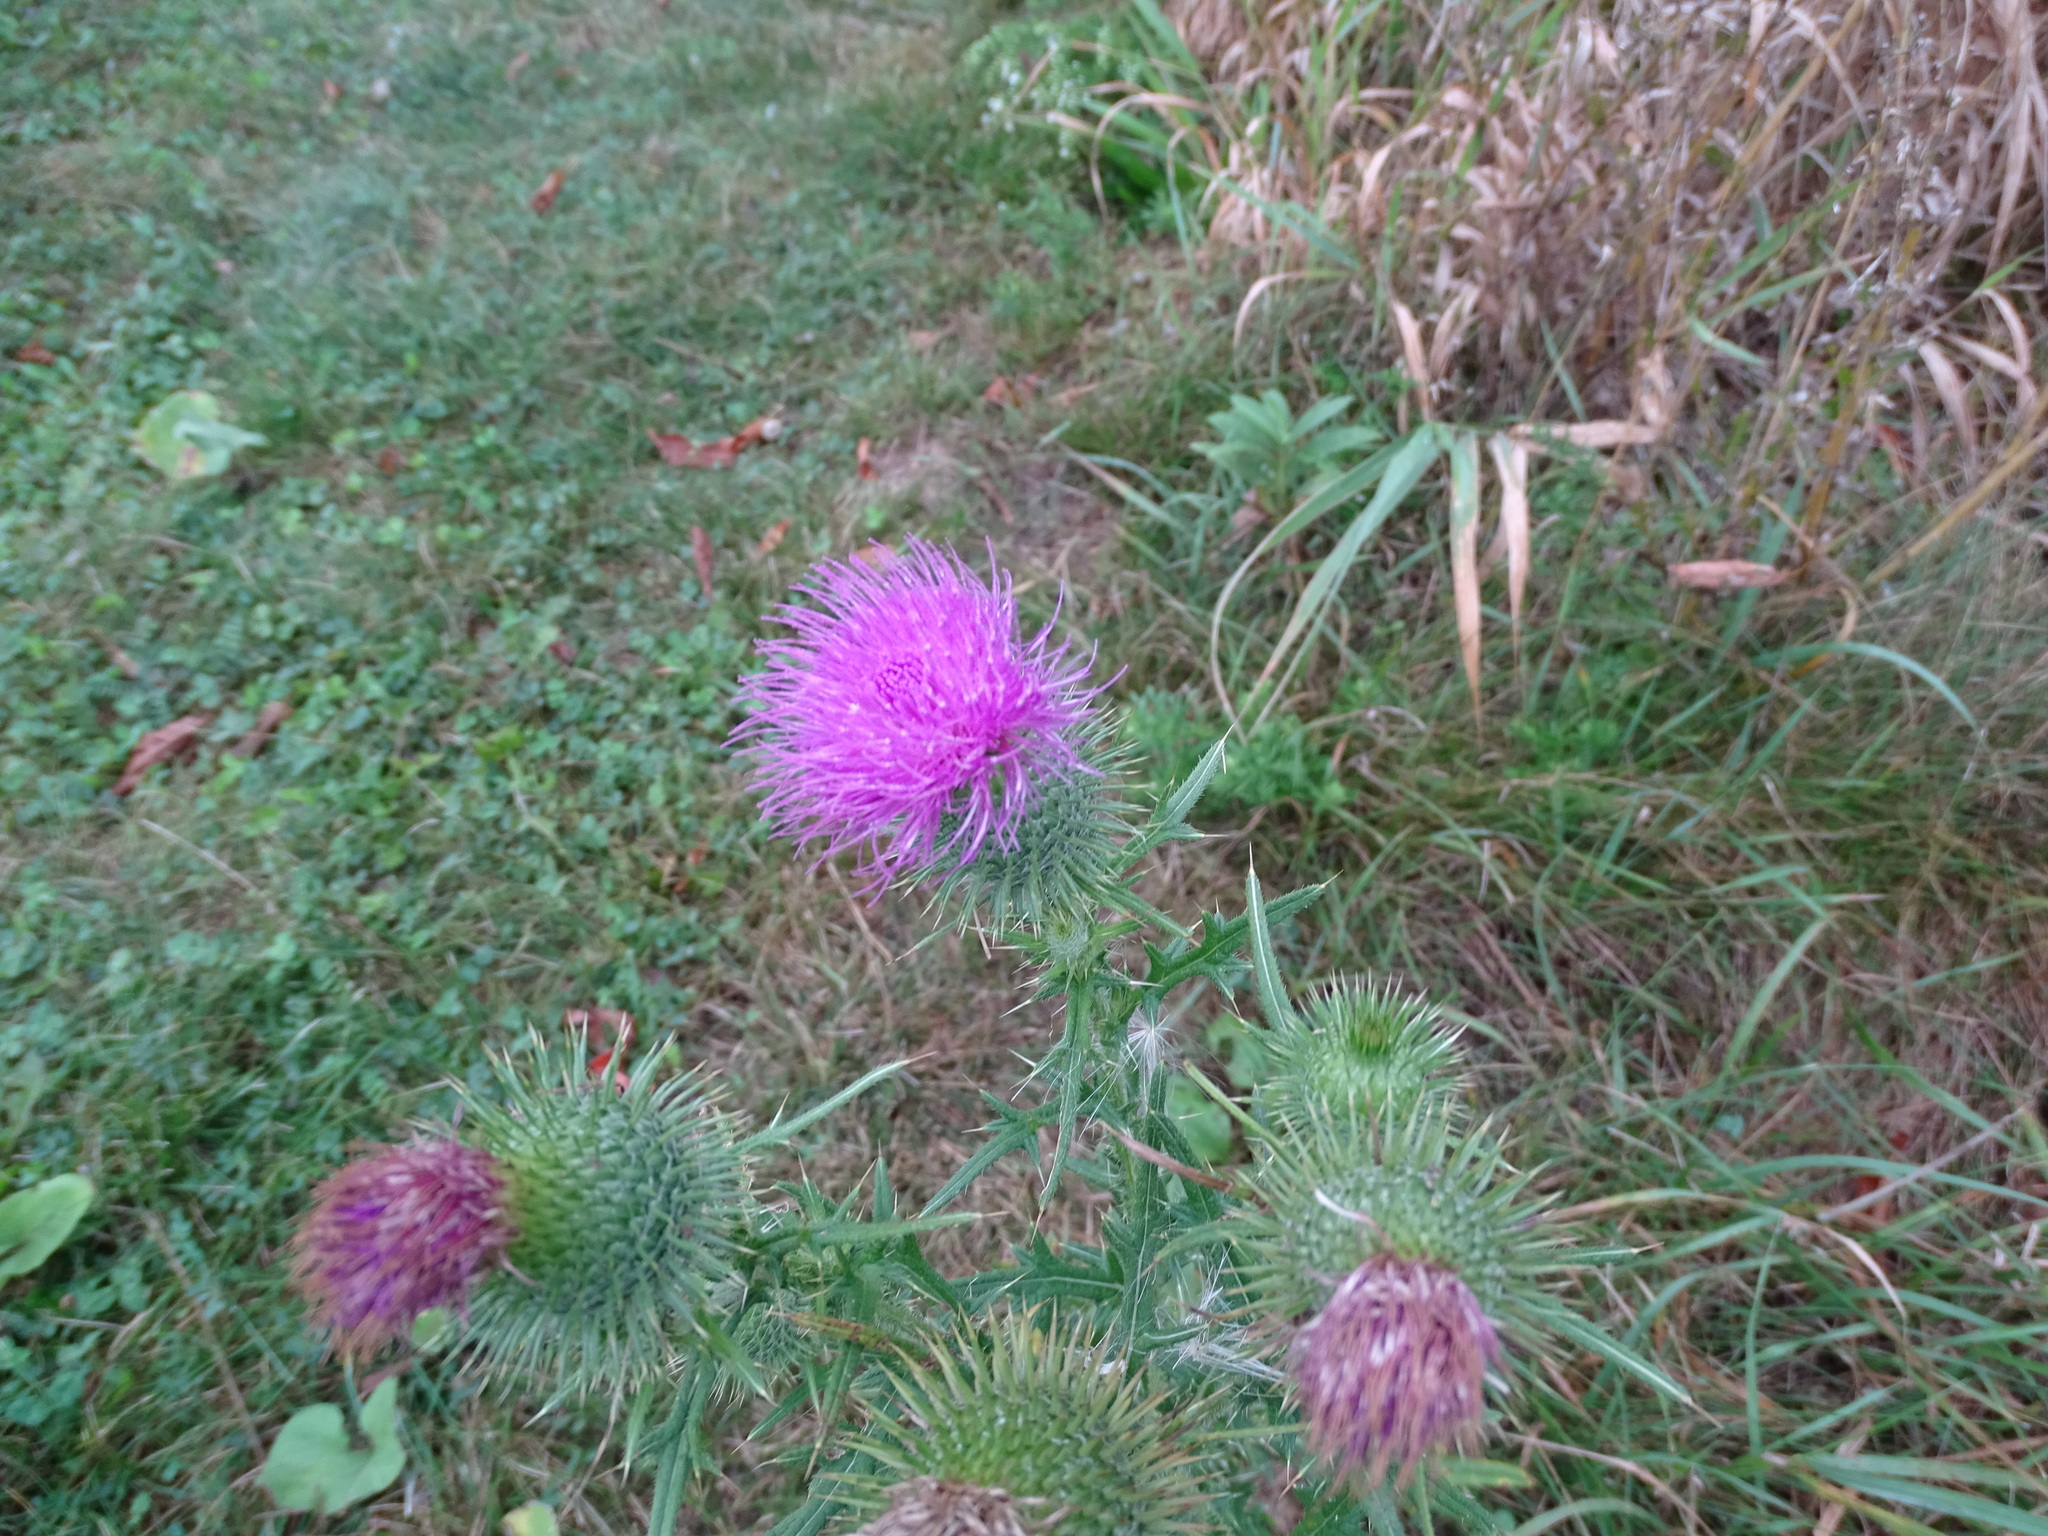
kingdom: Plantae
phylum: Tracheophyta
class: Magnoliopsida
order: Asterales
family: Asteraceae
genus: Cirsium
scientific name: Cirsium vulgare
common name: Bull thistle
